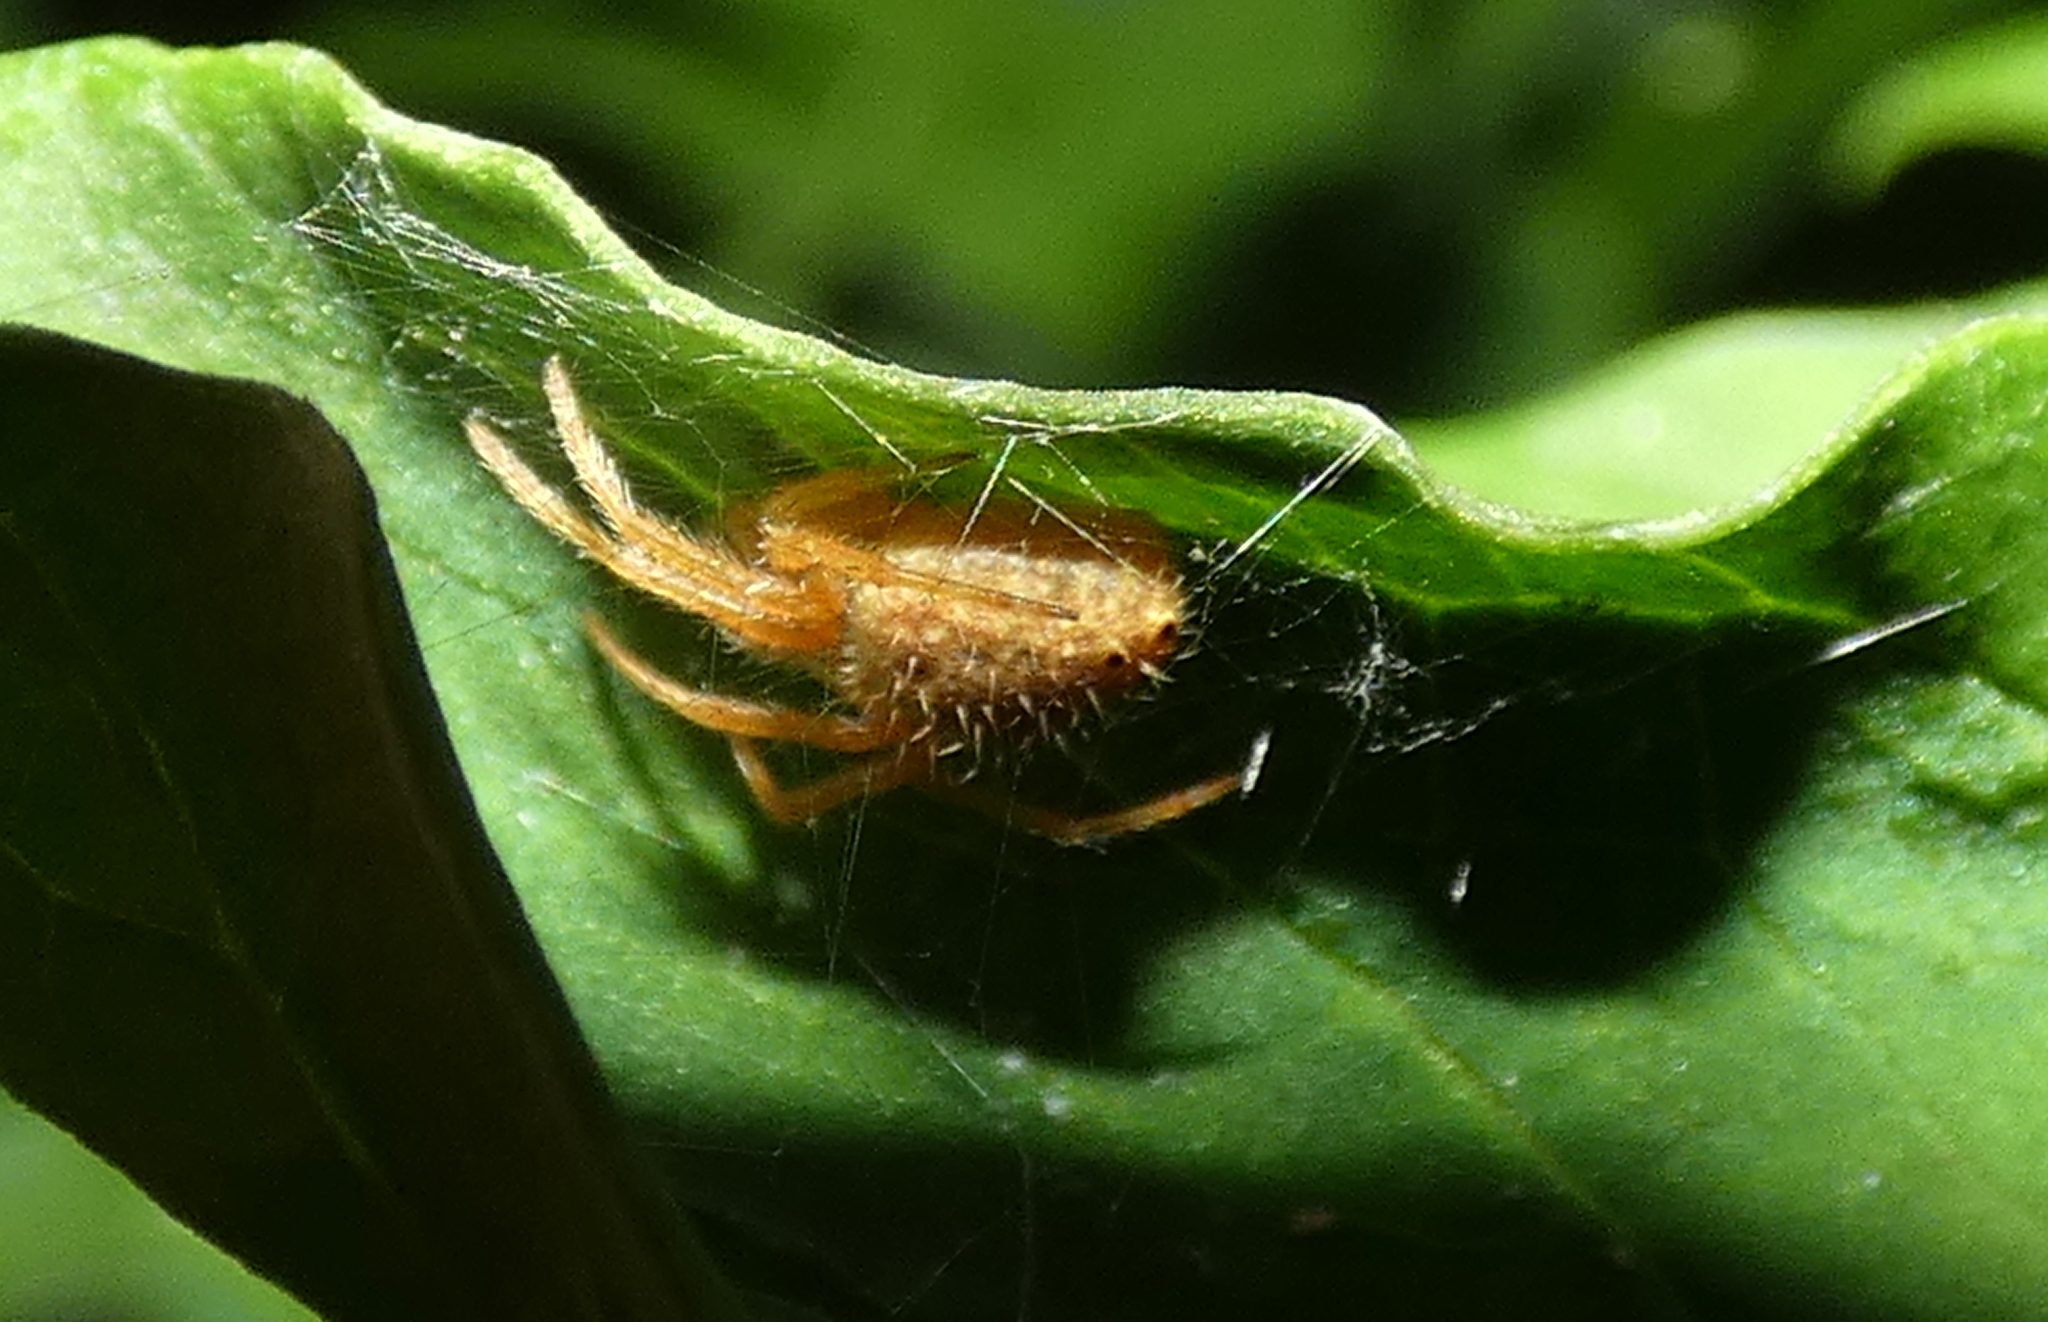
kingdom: Animalia
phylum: Arthropoda
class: Arachnida
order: Araneae
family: Araneidae
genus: Eriophora
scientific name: Eriophora edax
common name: Orb weavers
